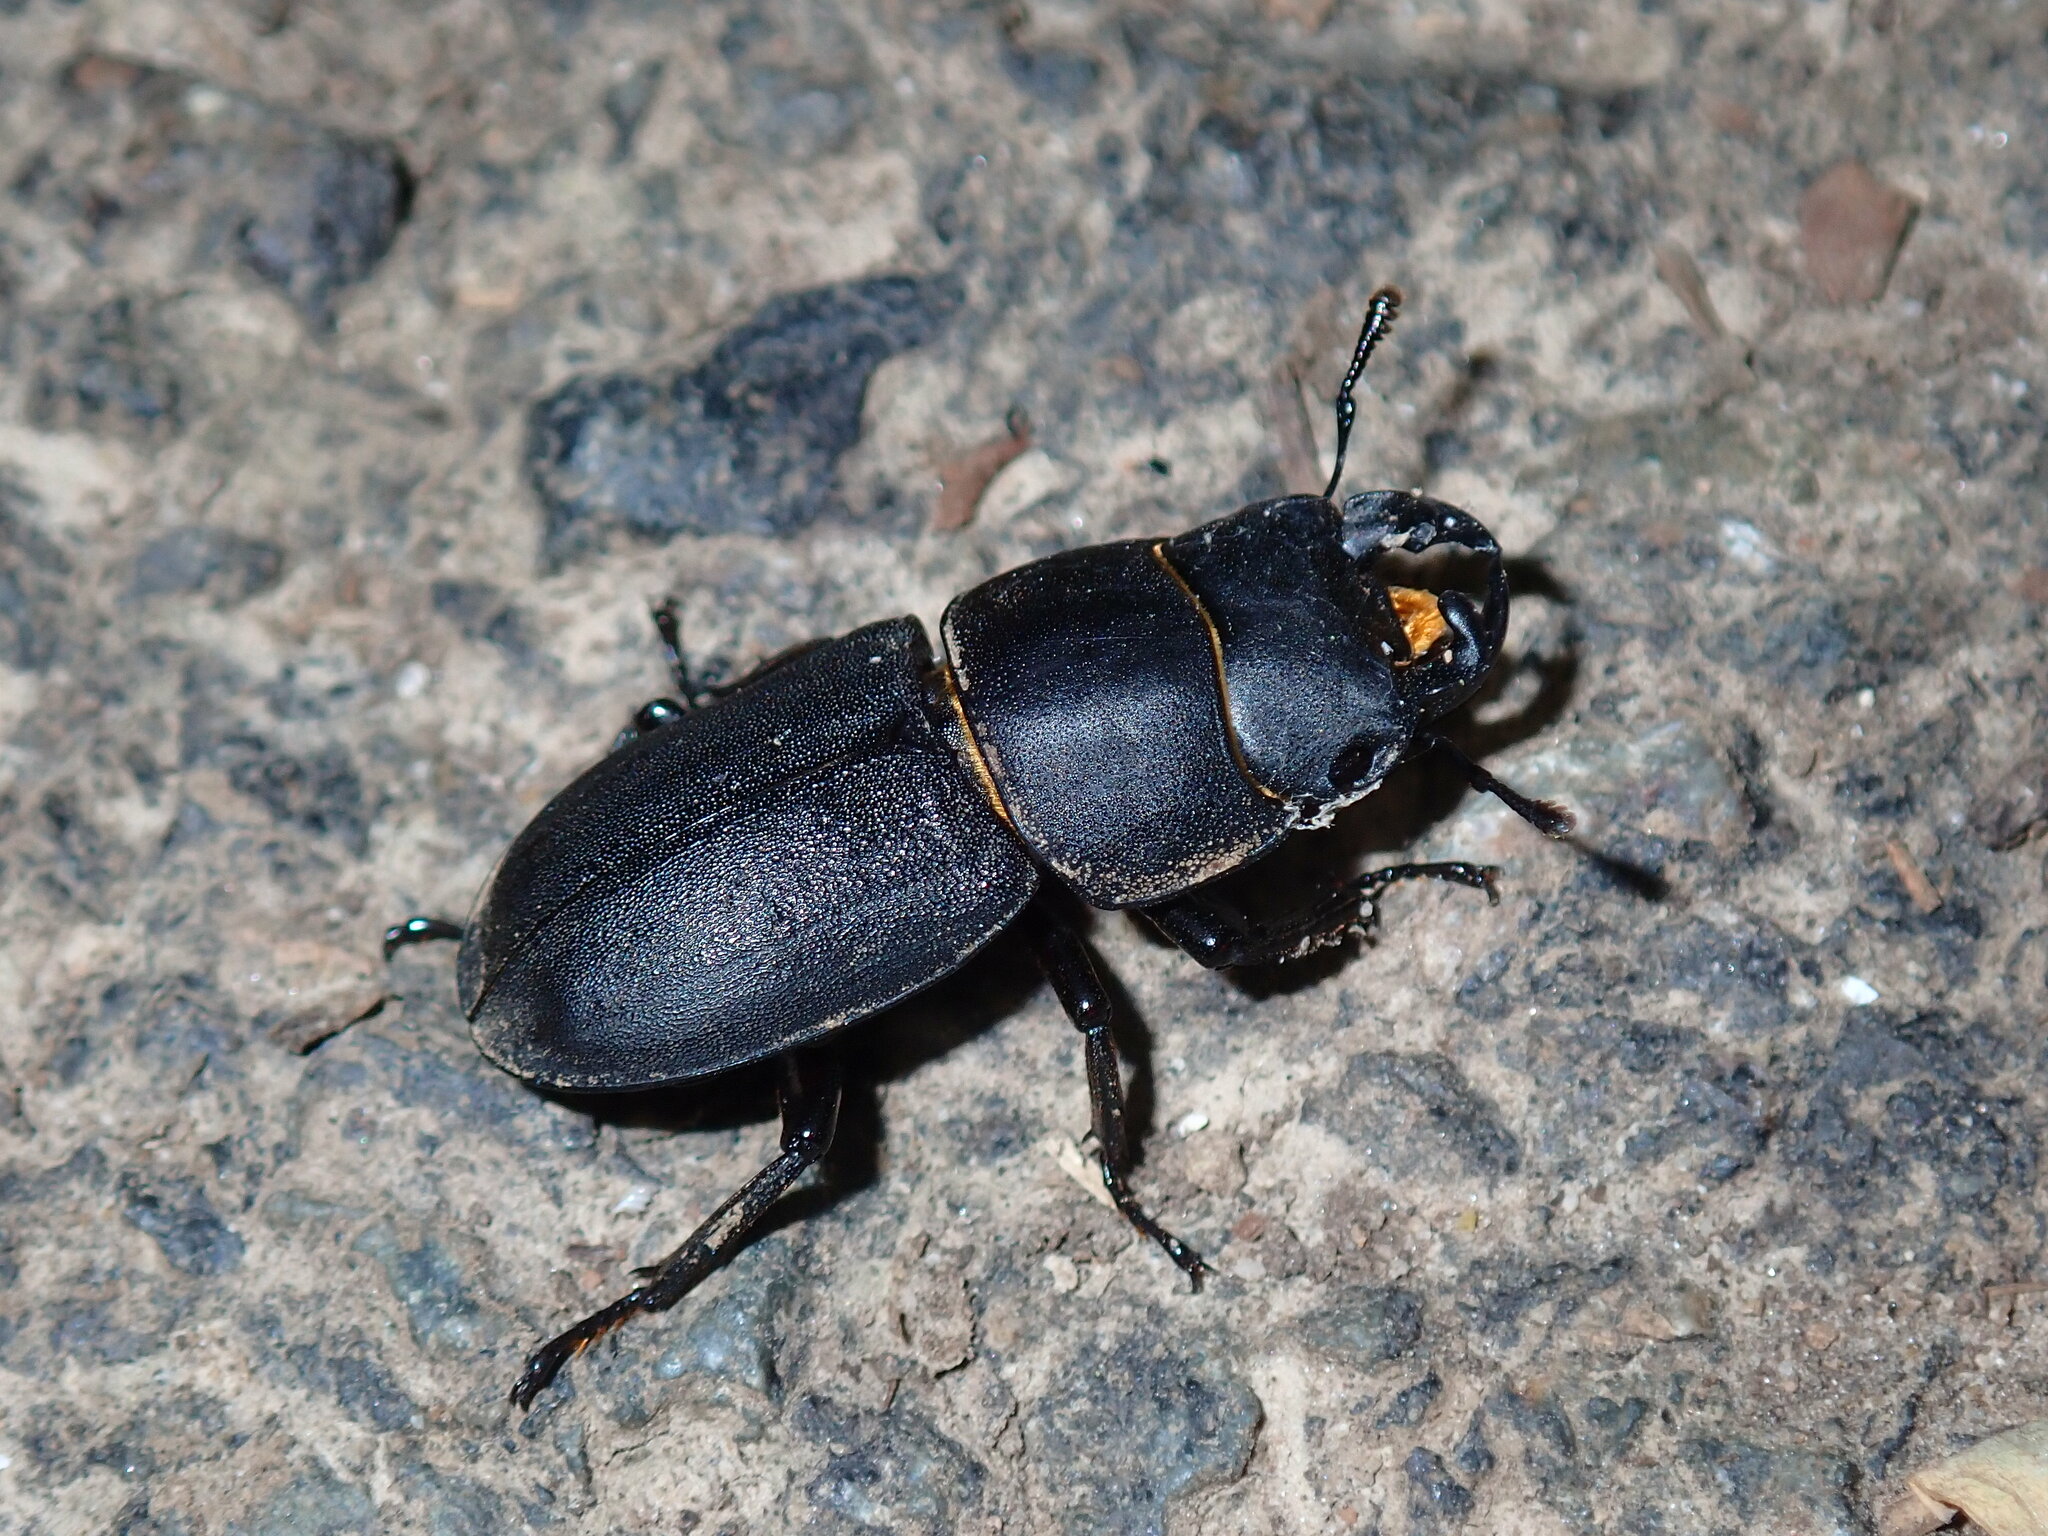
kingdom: Animalia
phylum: Arthropoda
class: Insecta
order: Coleoptera
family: Lucanidae
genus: Dorcus
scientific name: Dorcus parallelipipedus
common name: Lesser stag beetle
